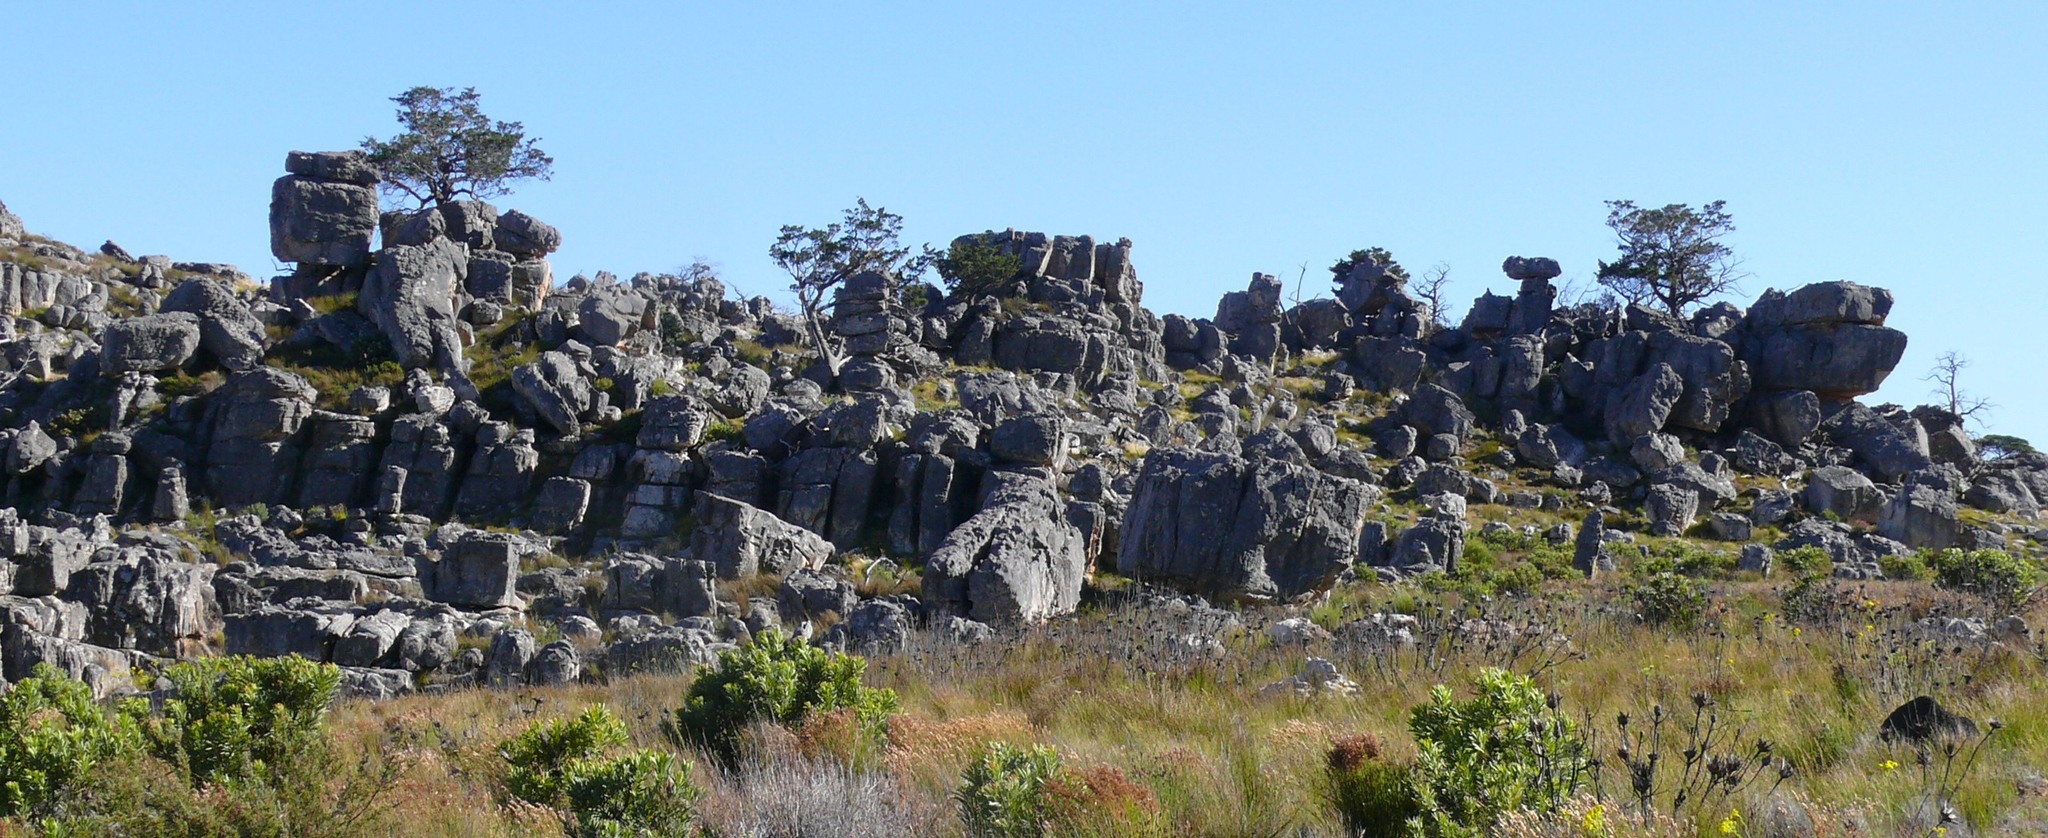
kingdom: Plantae
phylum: Tracheophyta
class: Pinopsida
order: Pinales
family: Cupressaceae
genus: Widdringtonia
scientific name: Widdringtonia nodiflora
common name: Cape cypress
